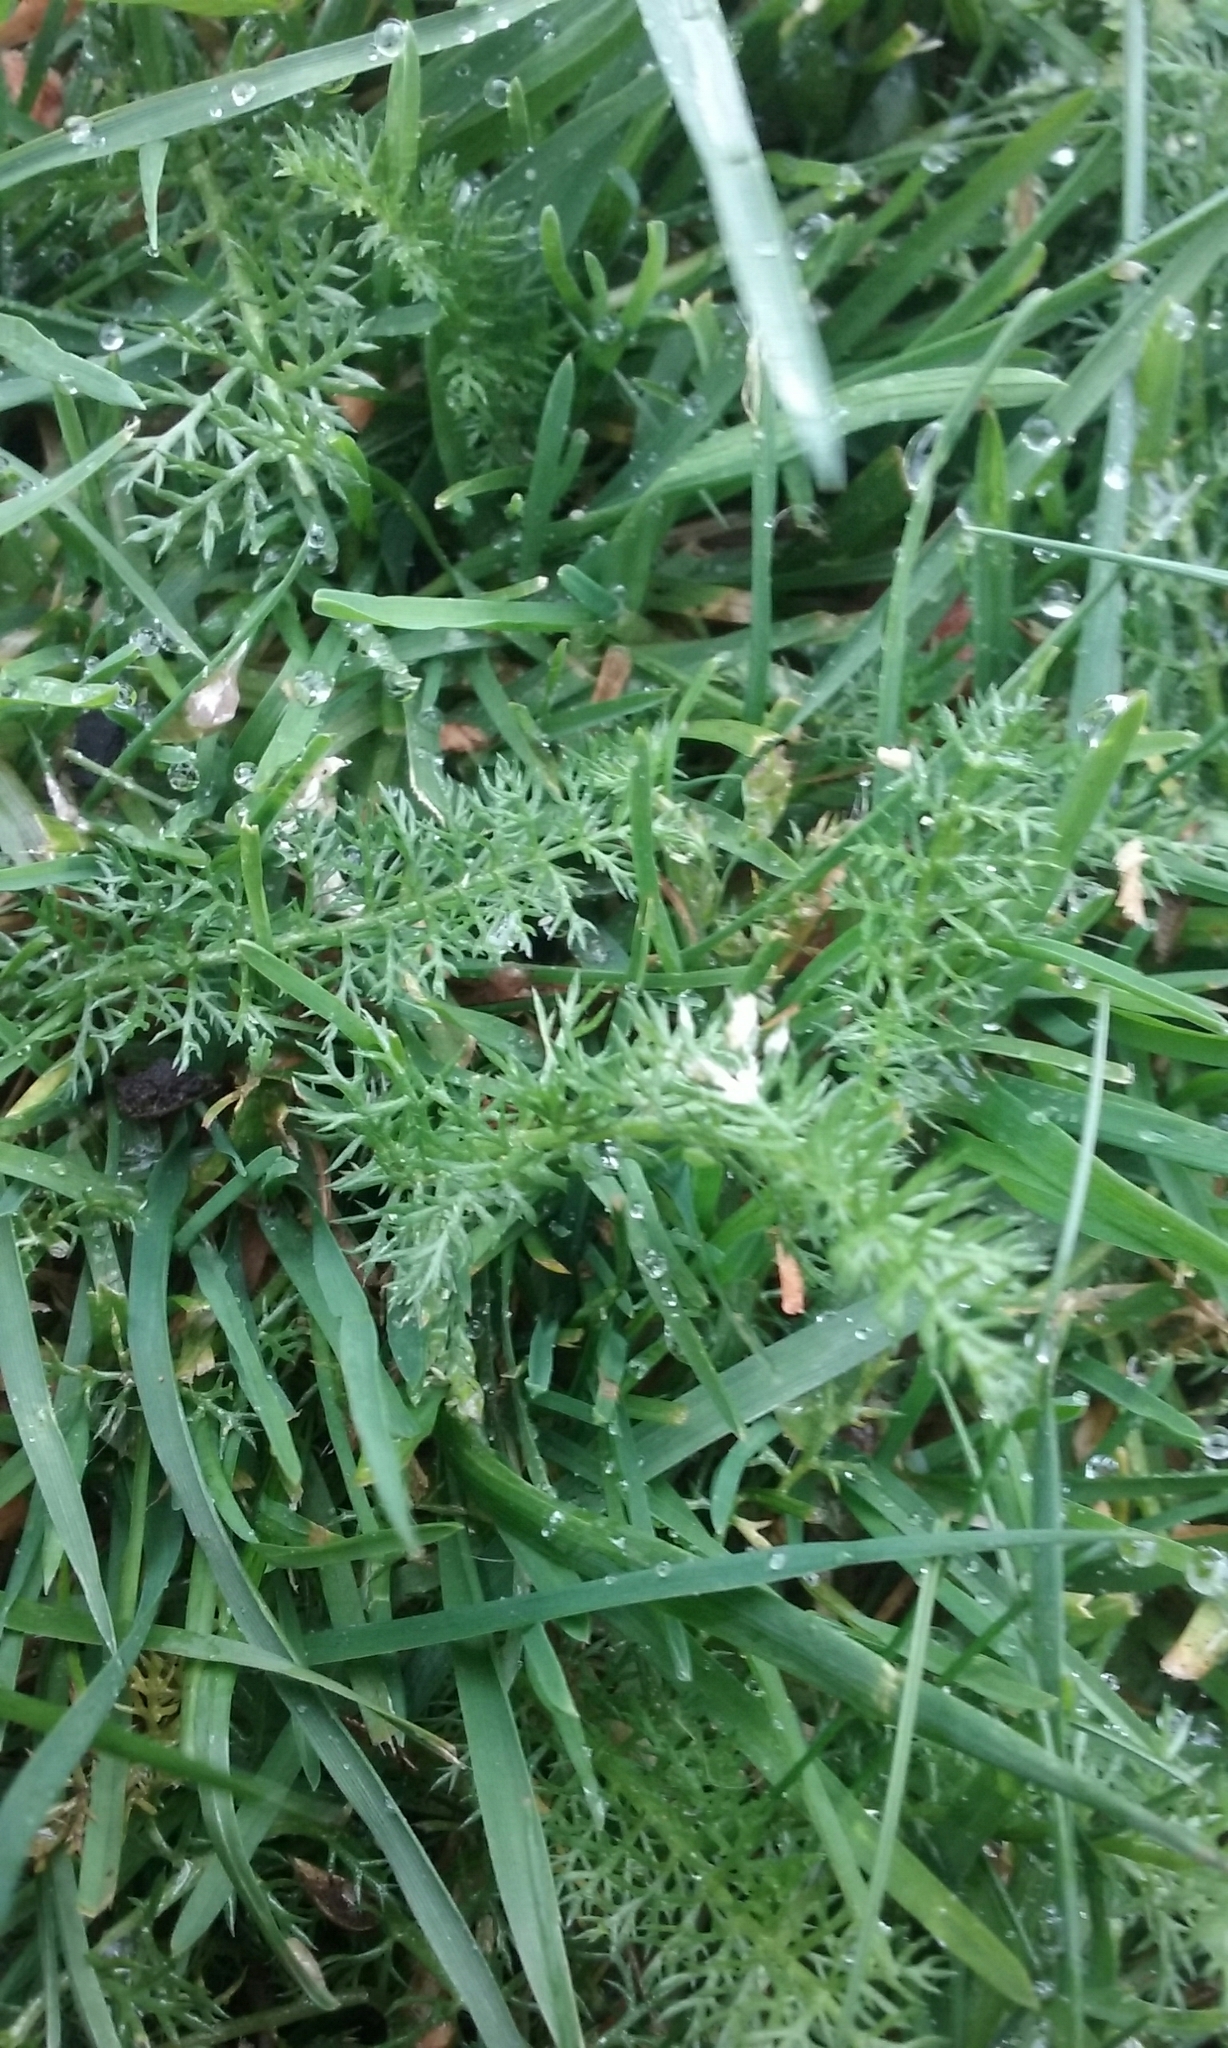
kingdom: Plantae
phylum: Tracheophyta
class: Magnoliopsida
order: Asterales
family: Asteraceae
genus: Achillea
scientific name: Achillea millefolium
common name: Yarrow
